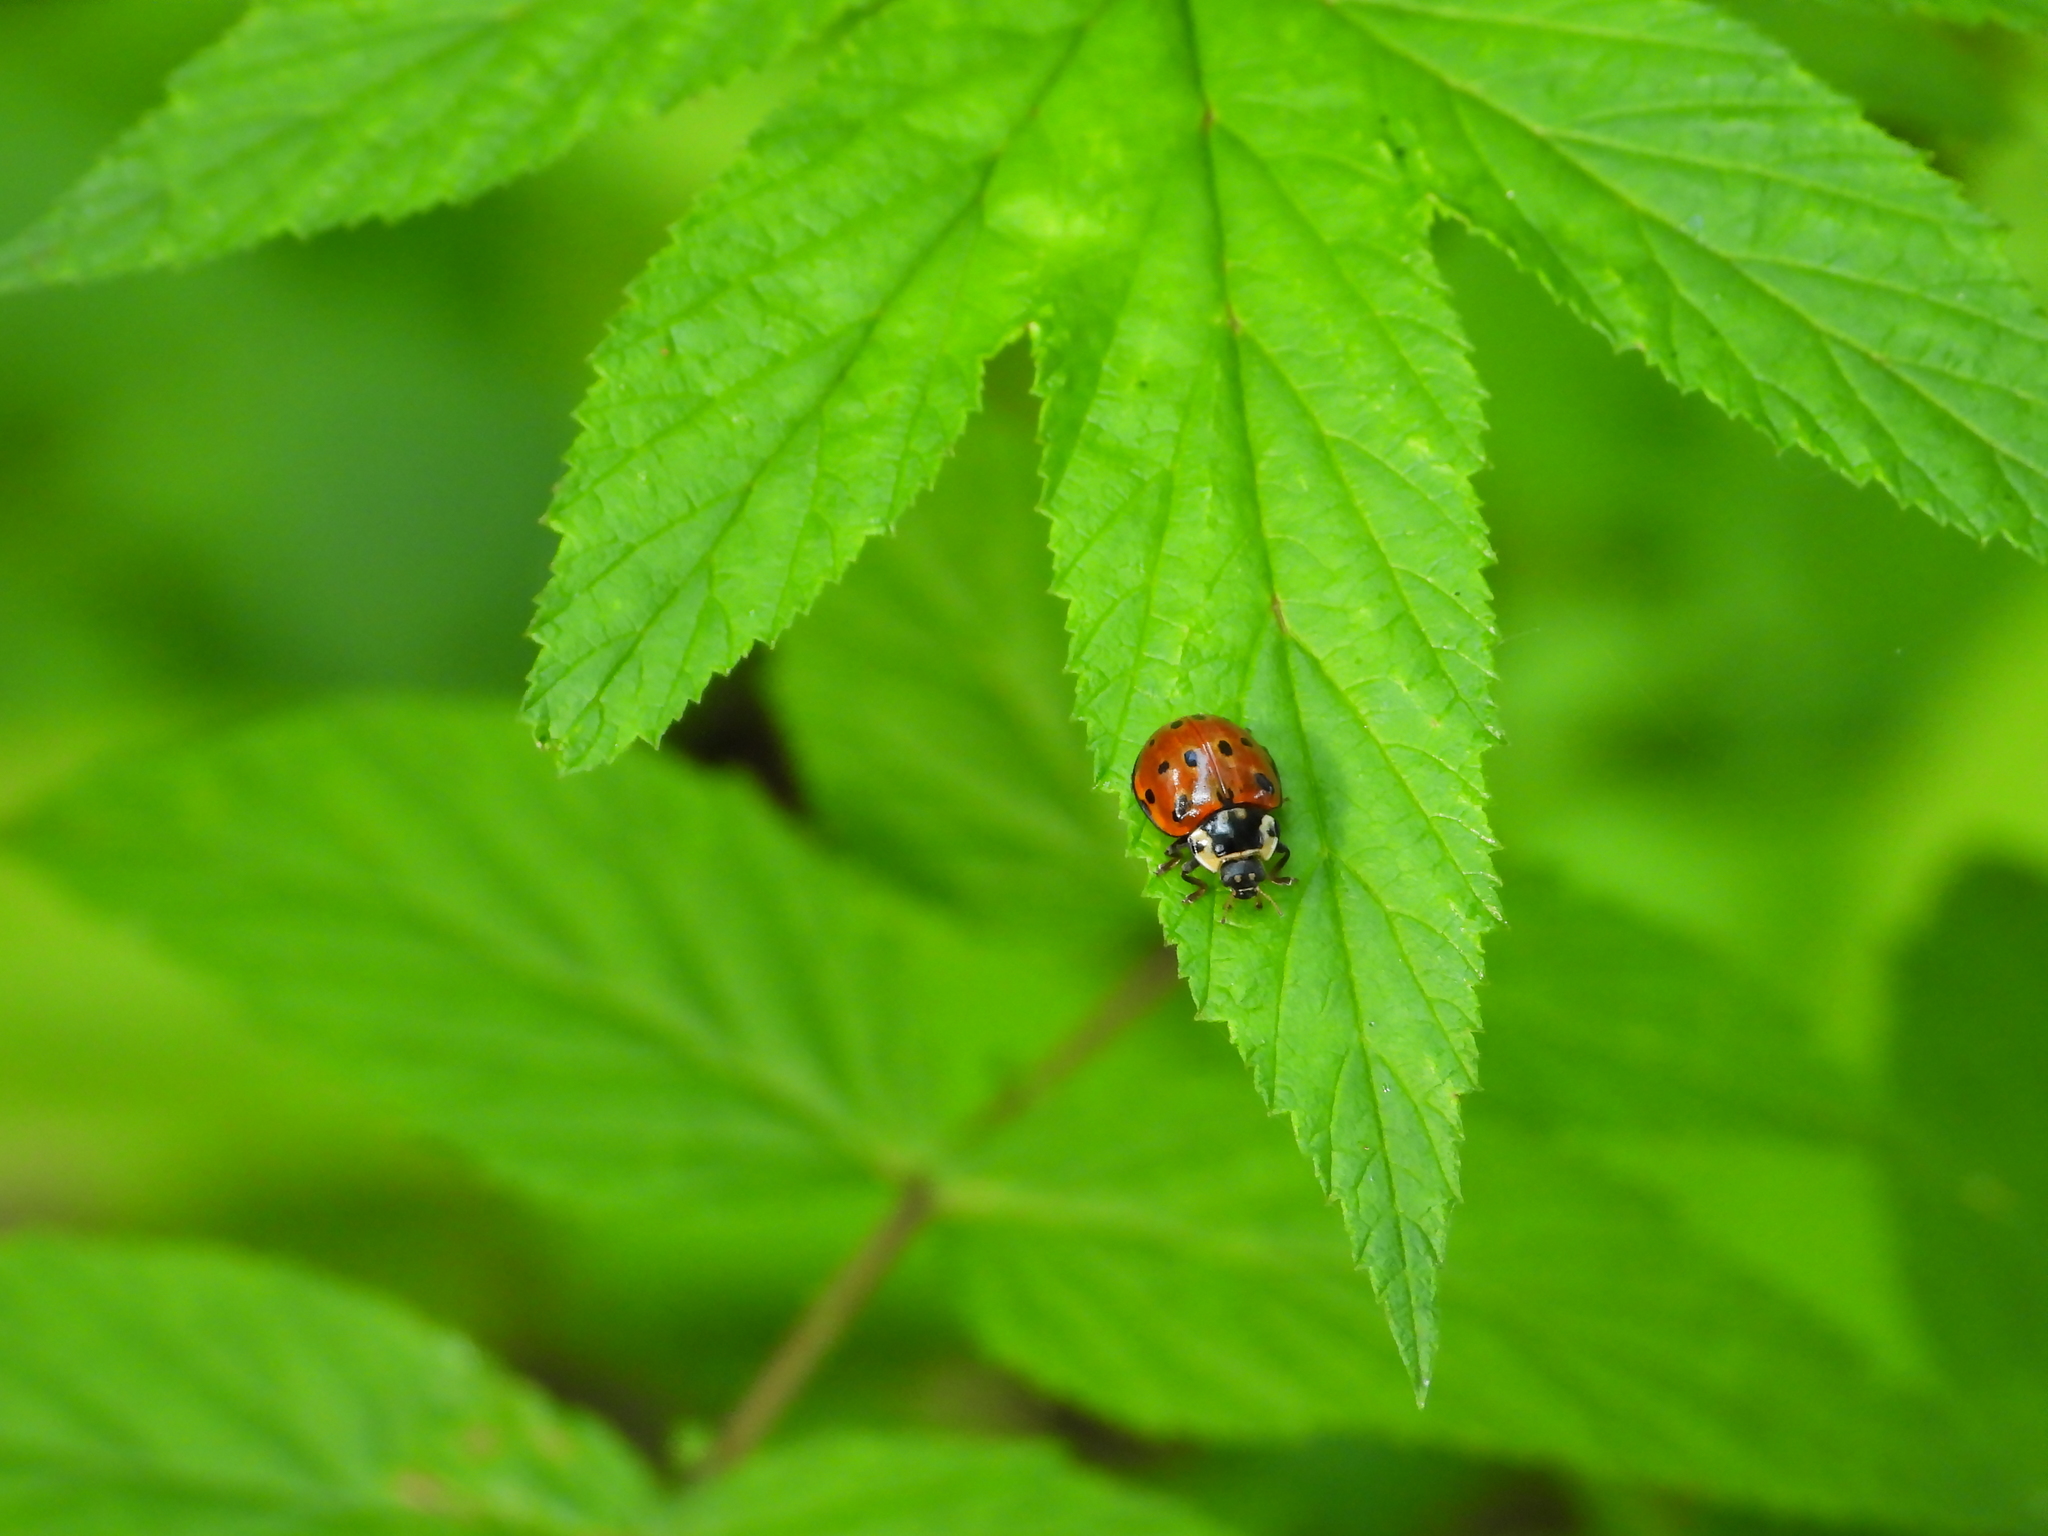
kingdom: Animalia
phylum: Arthropoda
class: Insecta
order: Coleoptera
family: Coccinellidae
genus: Anatis
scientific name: Anatis ocellata
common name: Eyed ladybird
